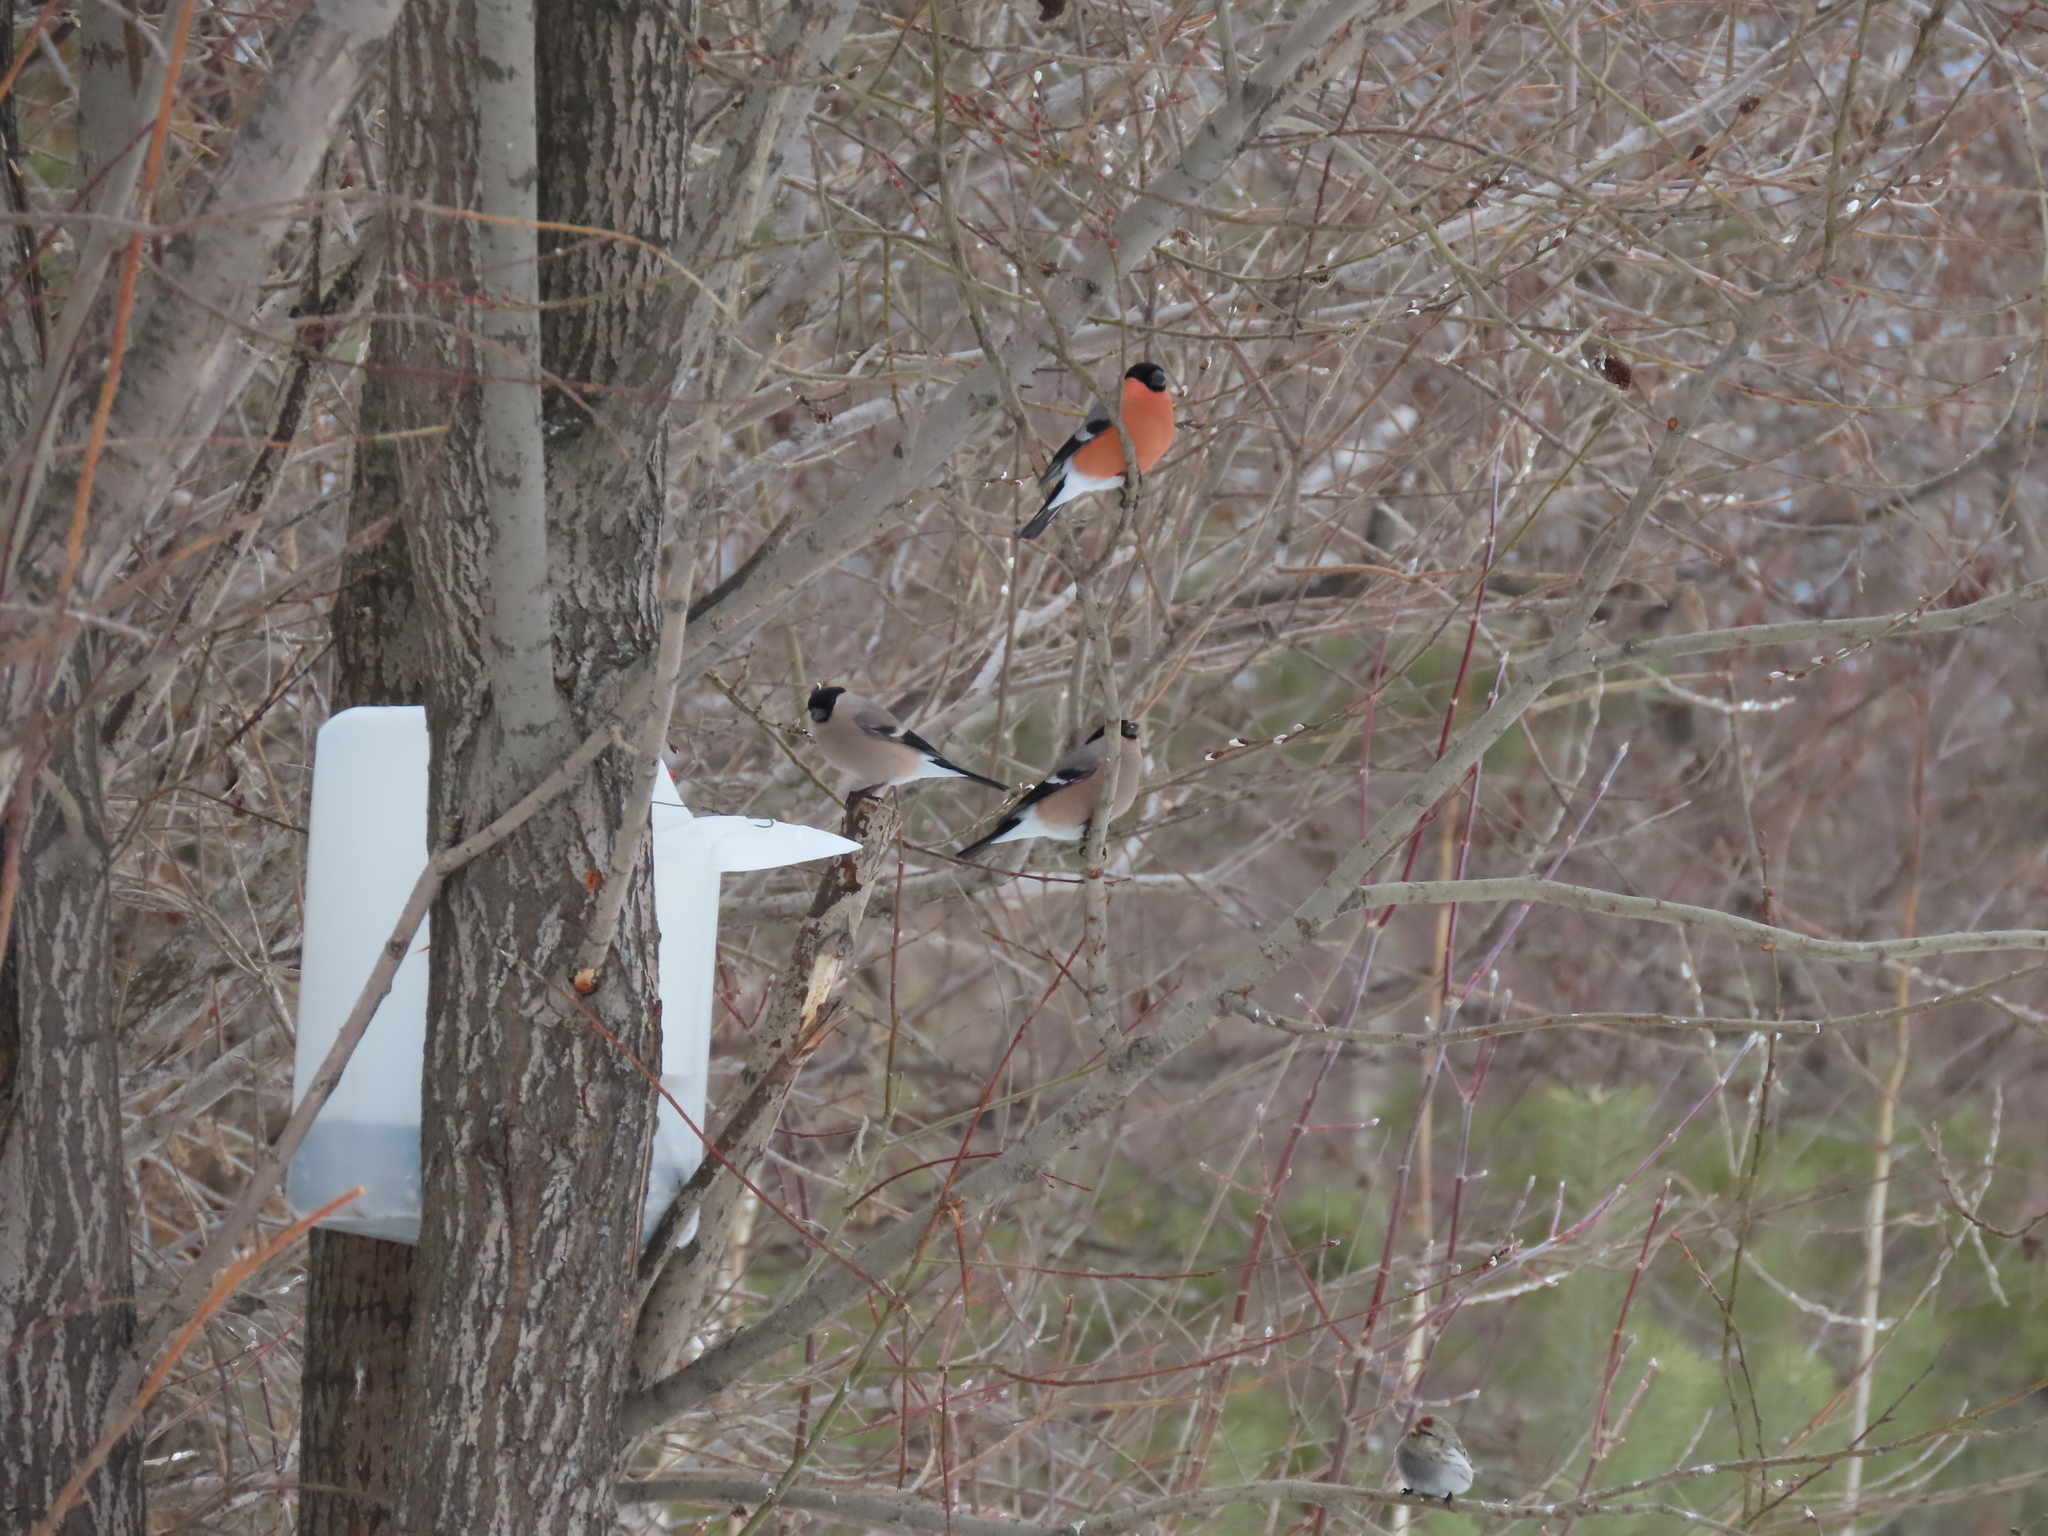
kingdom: Animalia
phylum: Chordata
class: Aves
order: Passeriformes
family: Fringillidae
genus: Pyrrhula
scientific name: Pyrrhula pyrrhula
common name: Eurasian bullfinch
